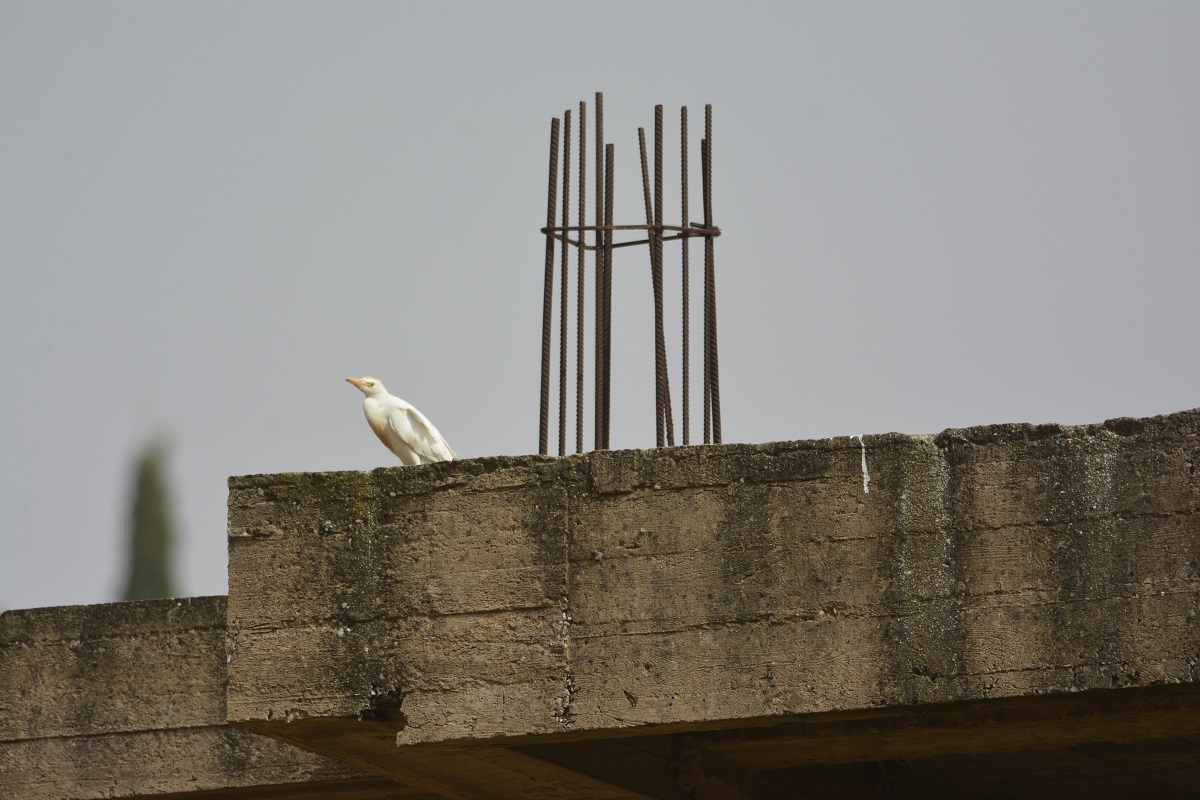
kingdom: Animalia
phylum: Chordata
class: Aves
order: Pelecaniformes
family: Ardeidae
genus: Bubulcus
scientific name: Bubulcus ibis
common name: Cattle egret
